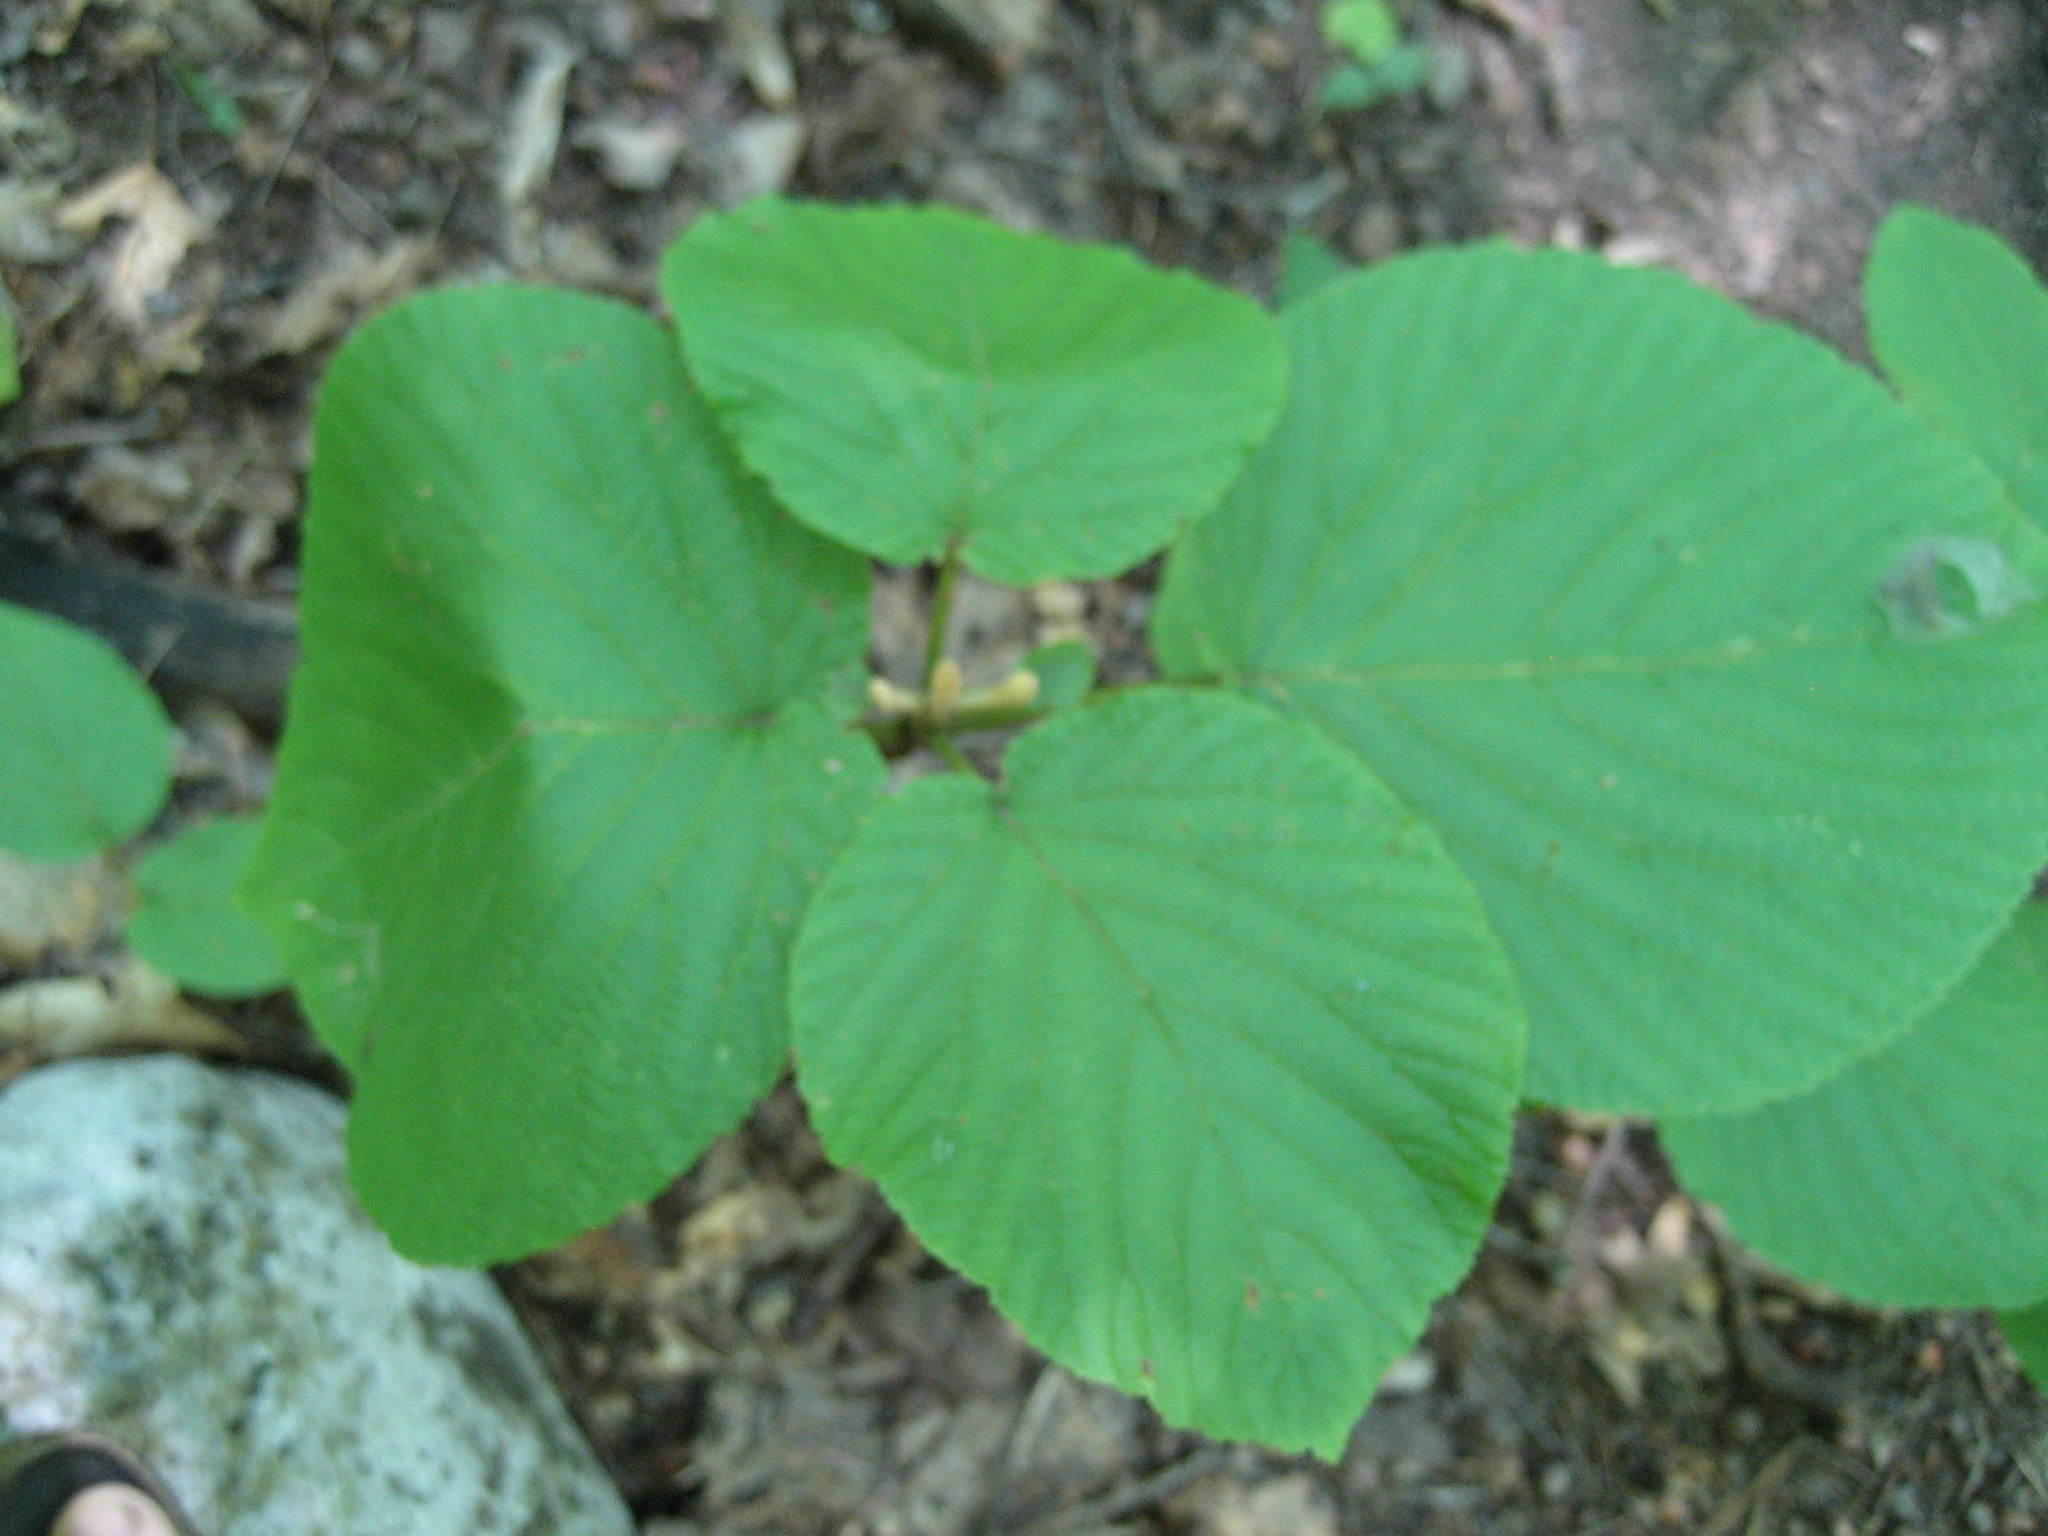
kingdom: Plantae
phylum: Tracheophyta
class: Magnoliopsida
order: Dipsacales
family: Viburnaceae
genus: Viburnum
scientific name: Viburnum lantanoides
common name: Hobblebush
